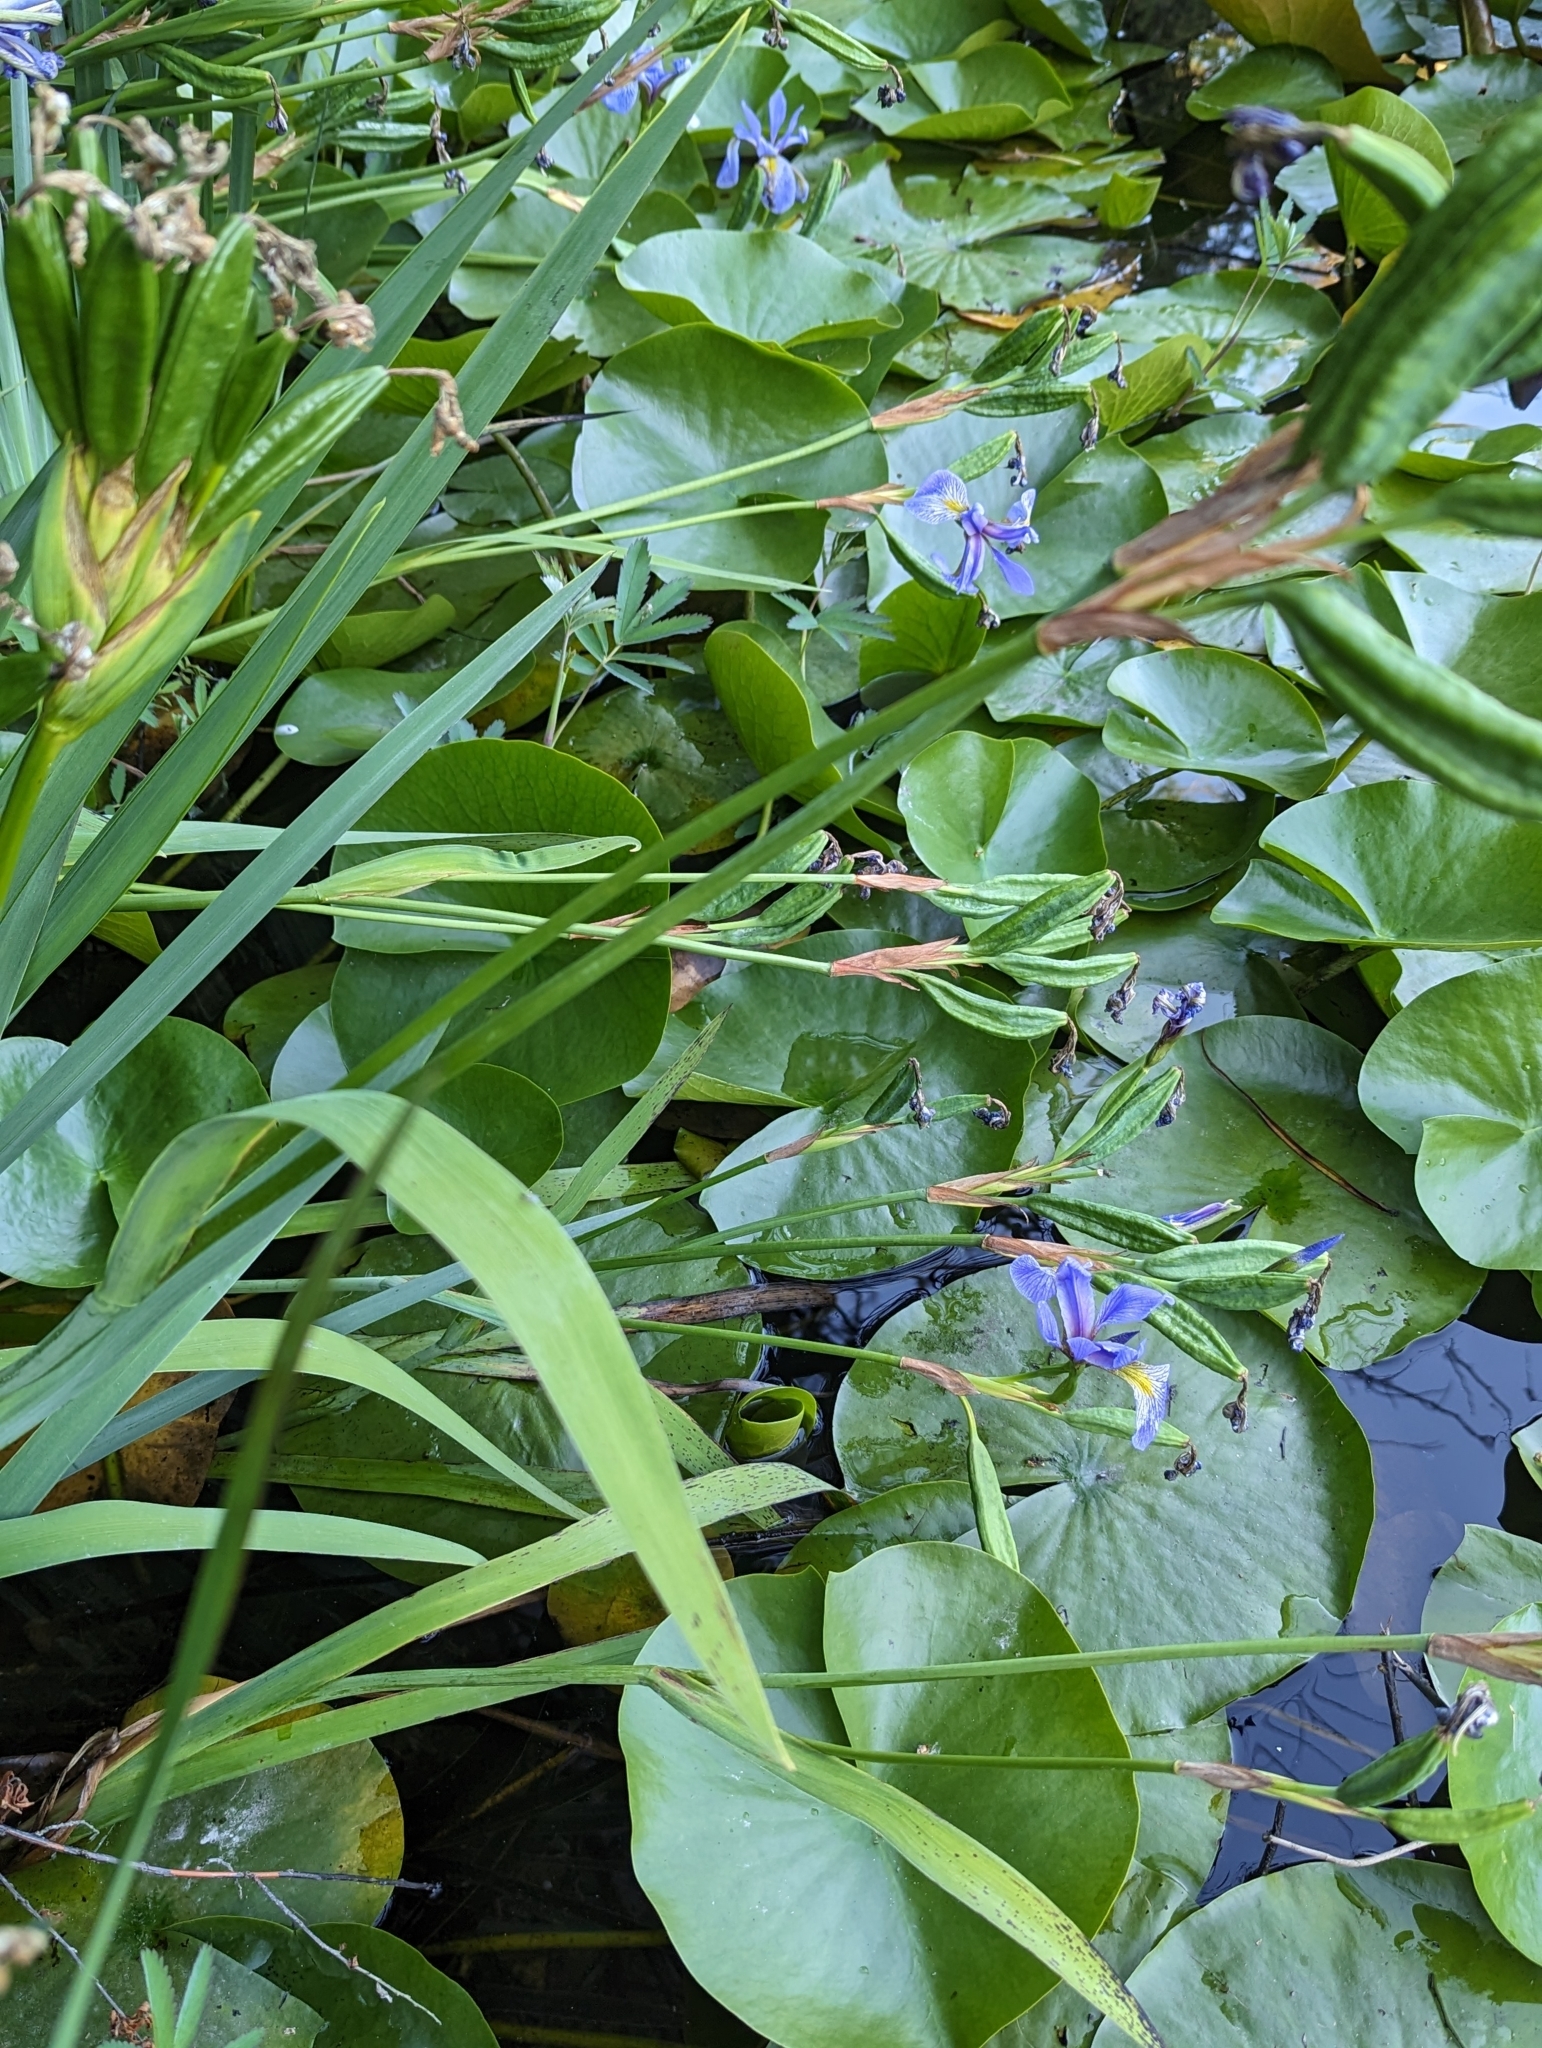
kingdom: Plantae
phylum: Tracheophyta
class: Liliopsida
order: Asparagales
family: Iridaceae
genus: Iris
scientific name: Iris versicolor
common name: Purple iris
